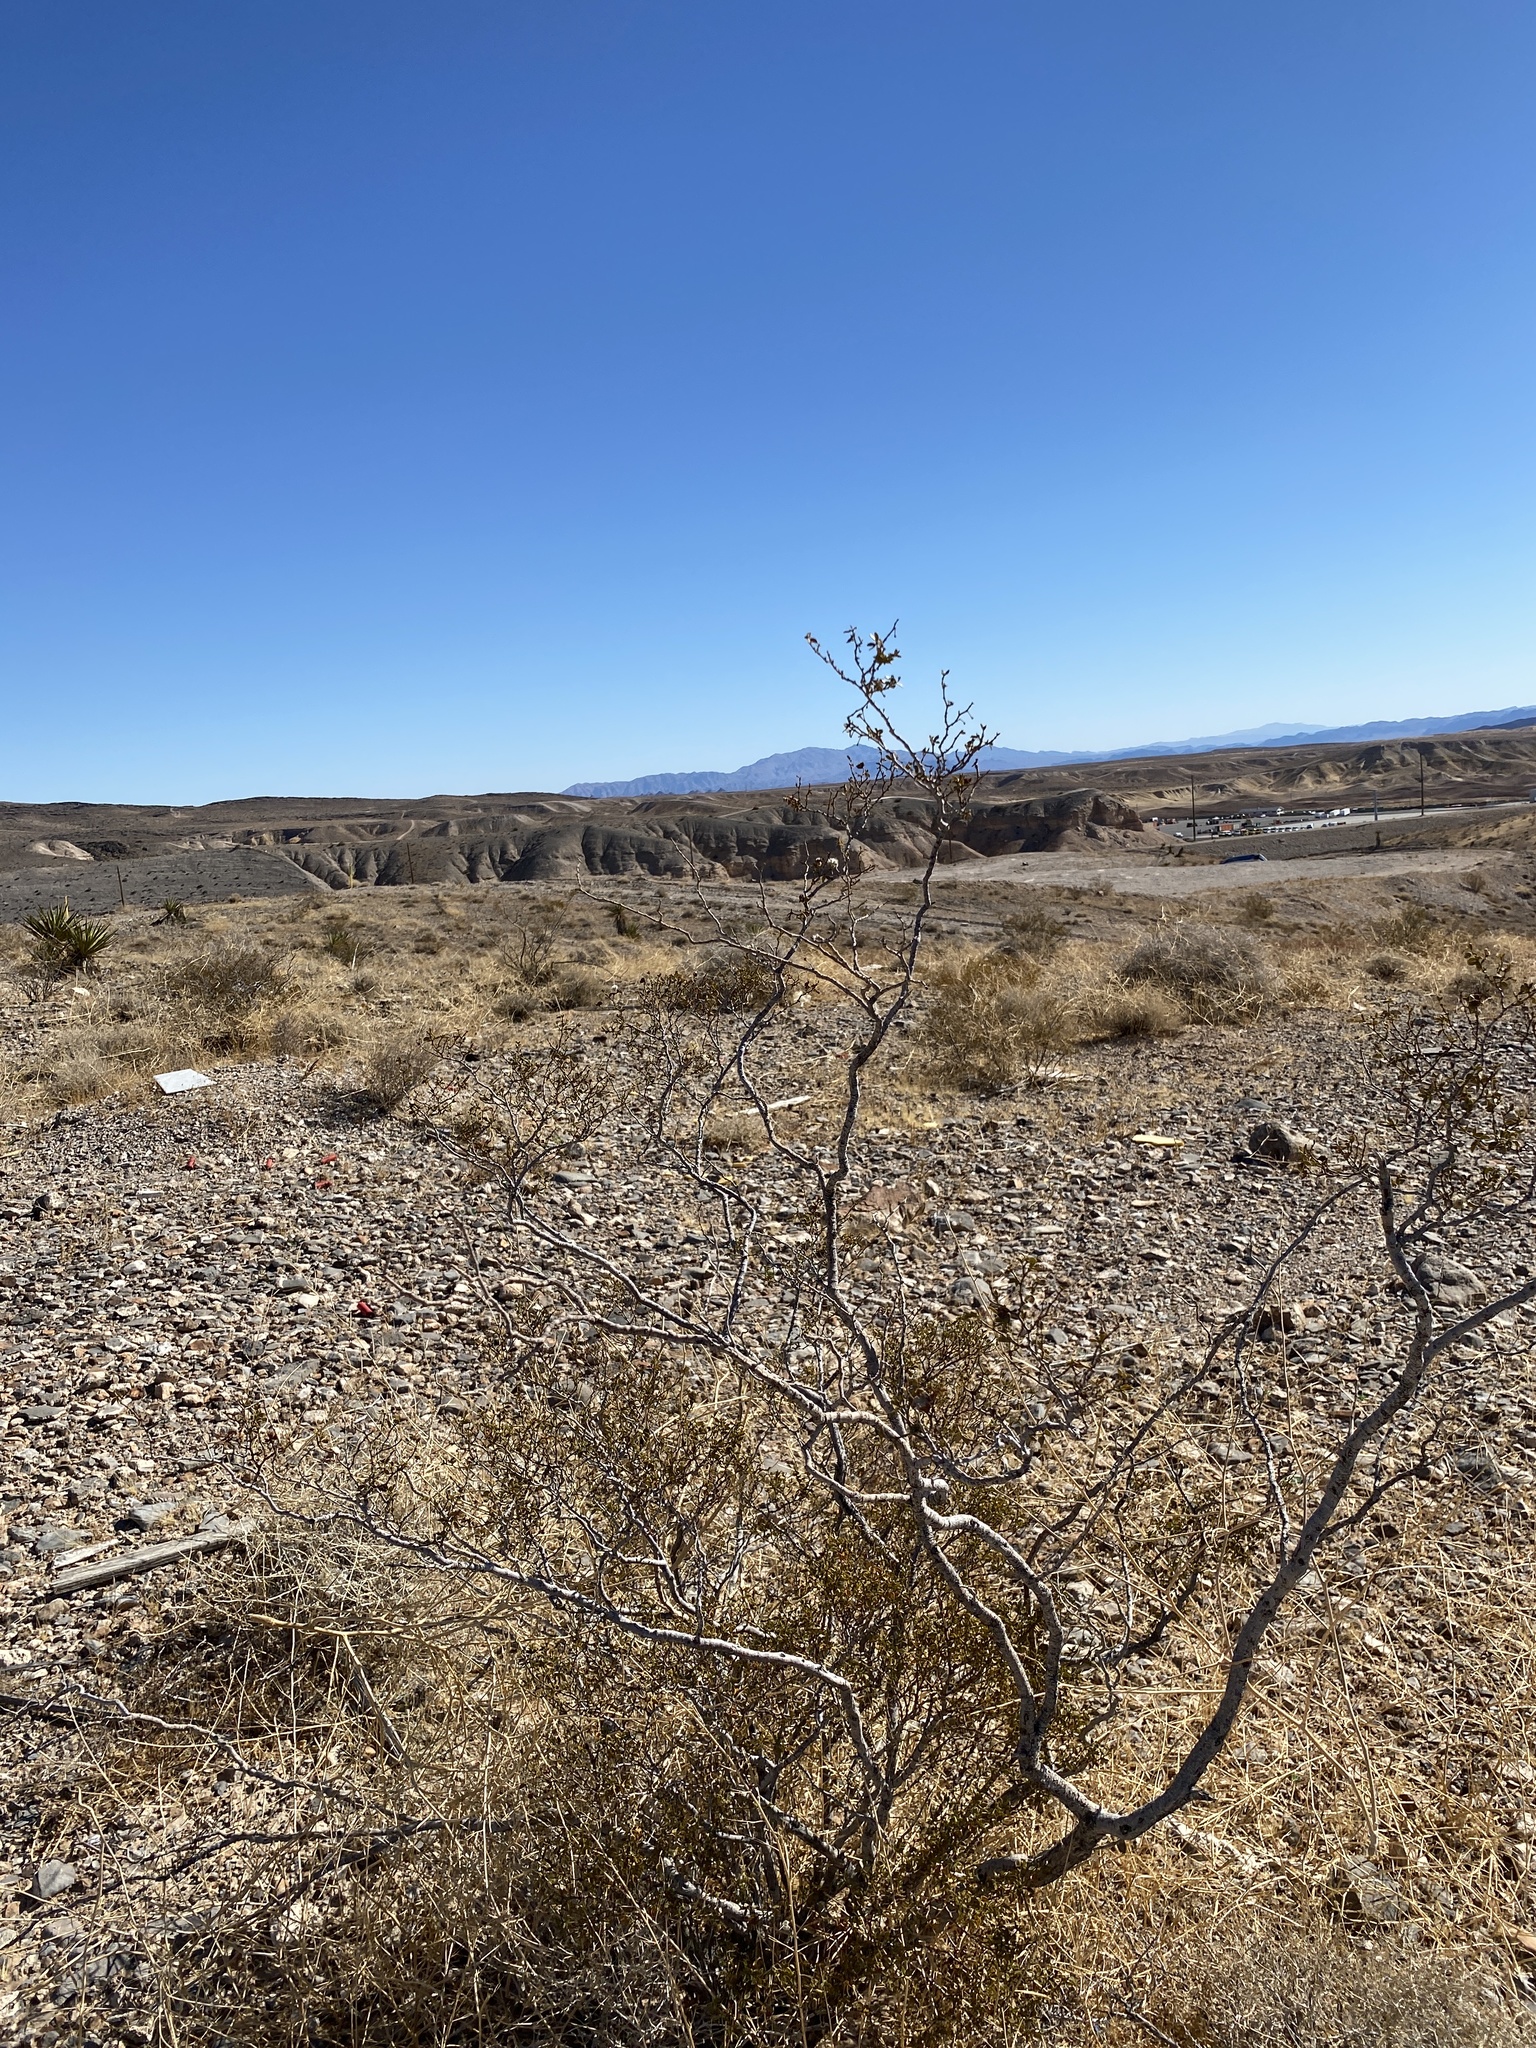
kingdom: Plantae
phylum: Tracheophyta
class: Magnoliopsida
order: Zygophyllales
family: Zygophyllaceae
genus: Larrea
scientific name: Larrea tridentata
